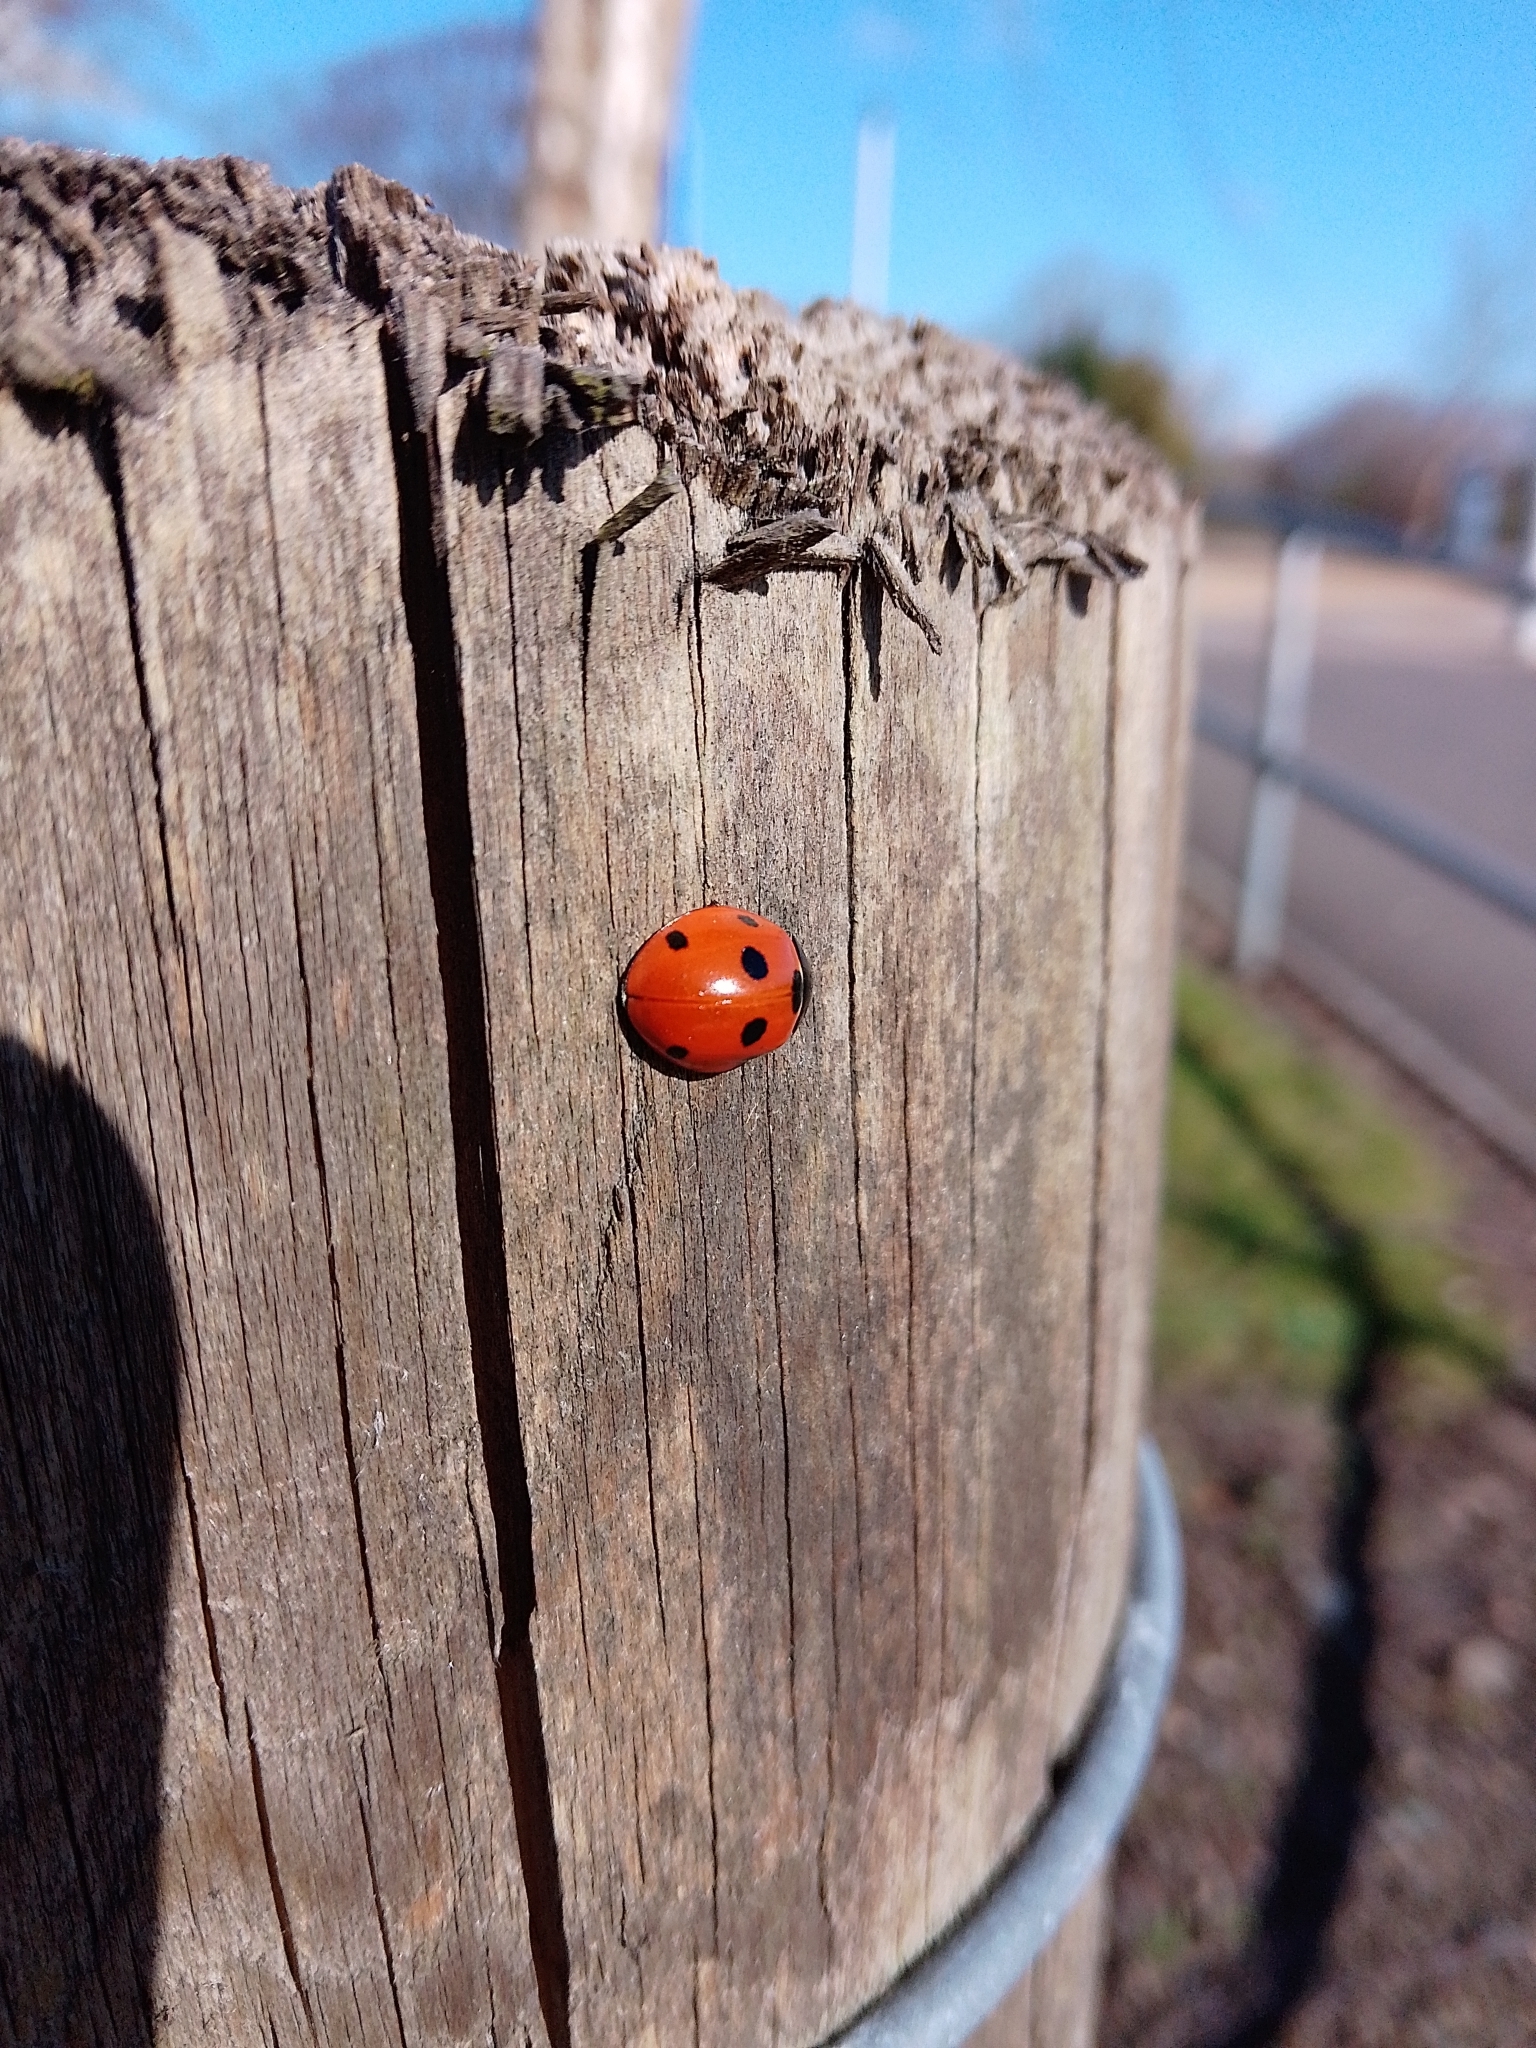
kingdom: Animalia
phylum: Arthropoda
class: Insecta
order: Coleoptera
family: Coccinellidae
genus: Coccinella
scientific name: Coccinella septempunctata
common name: Sevenspotted lady beetle
